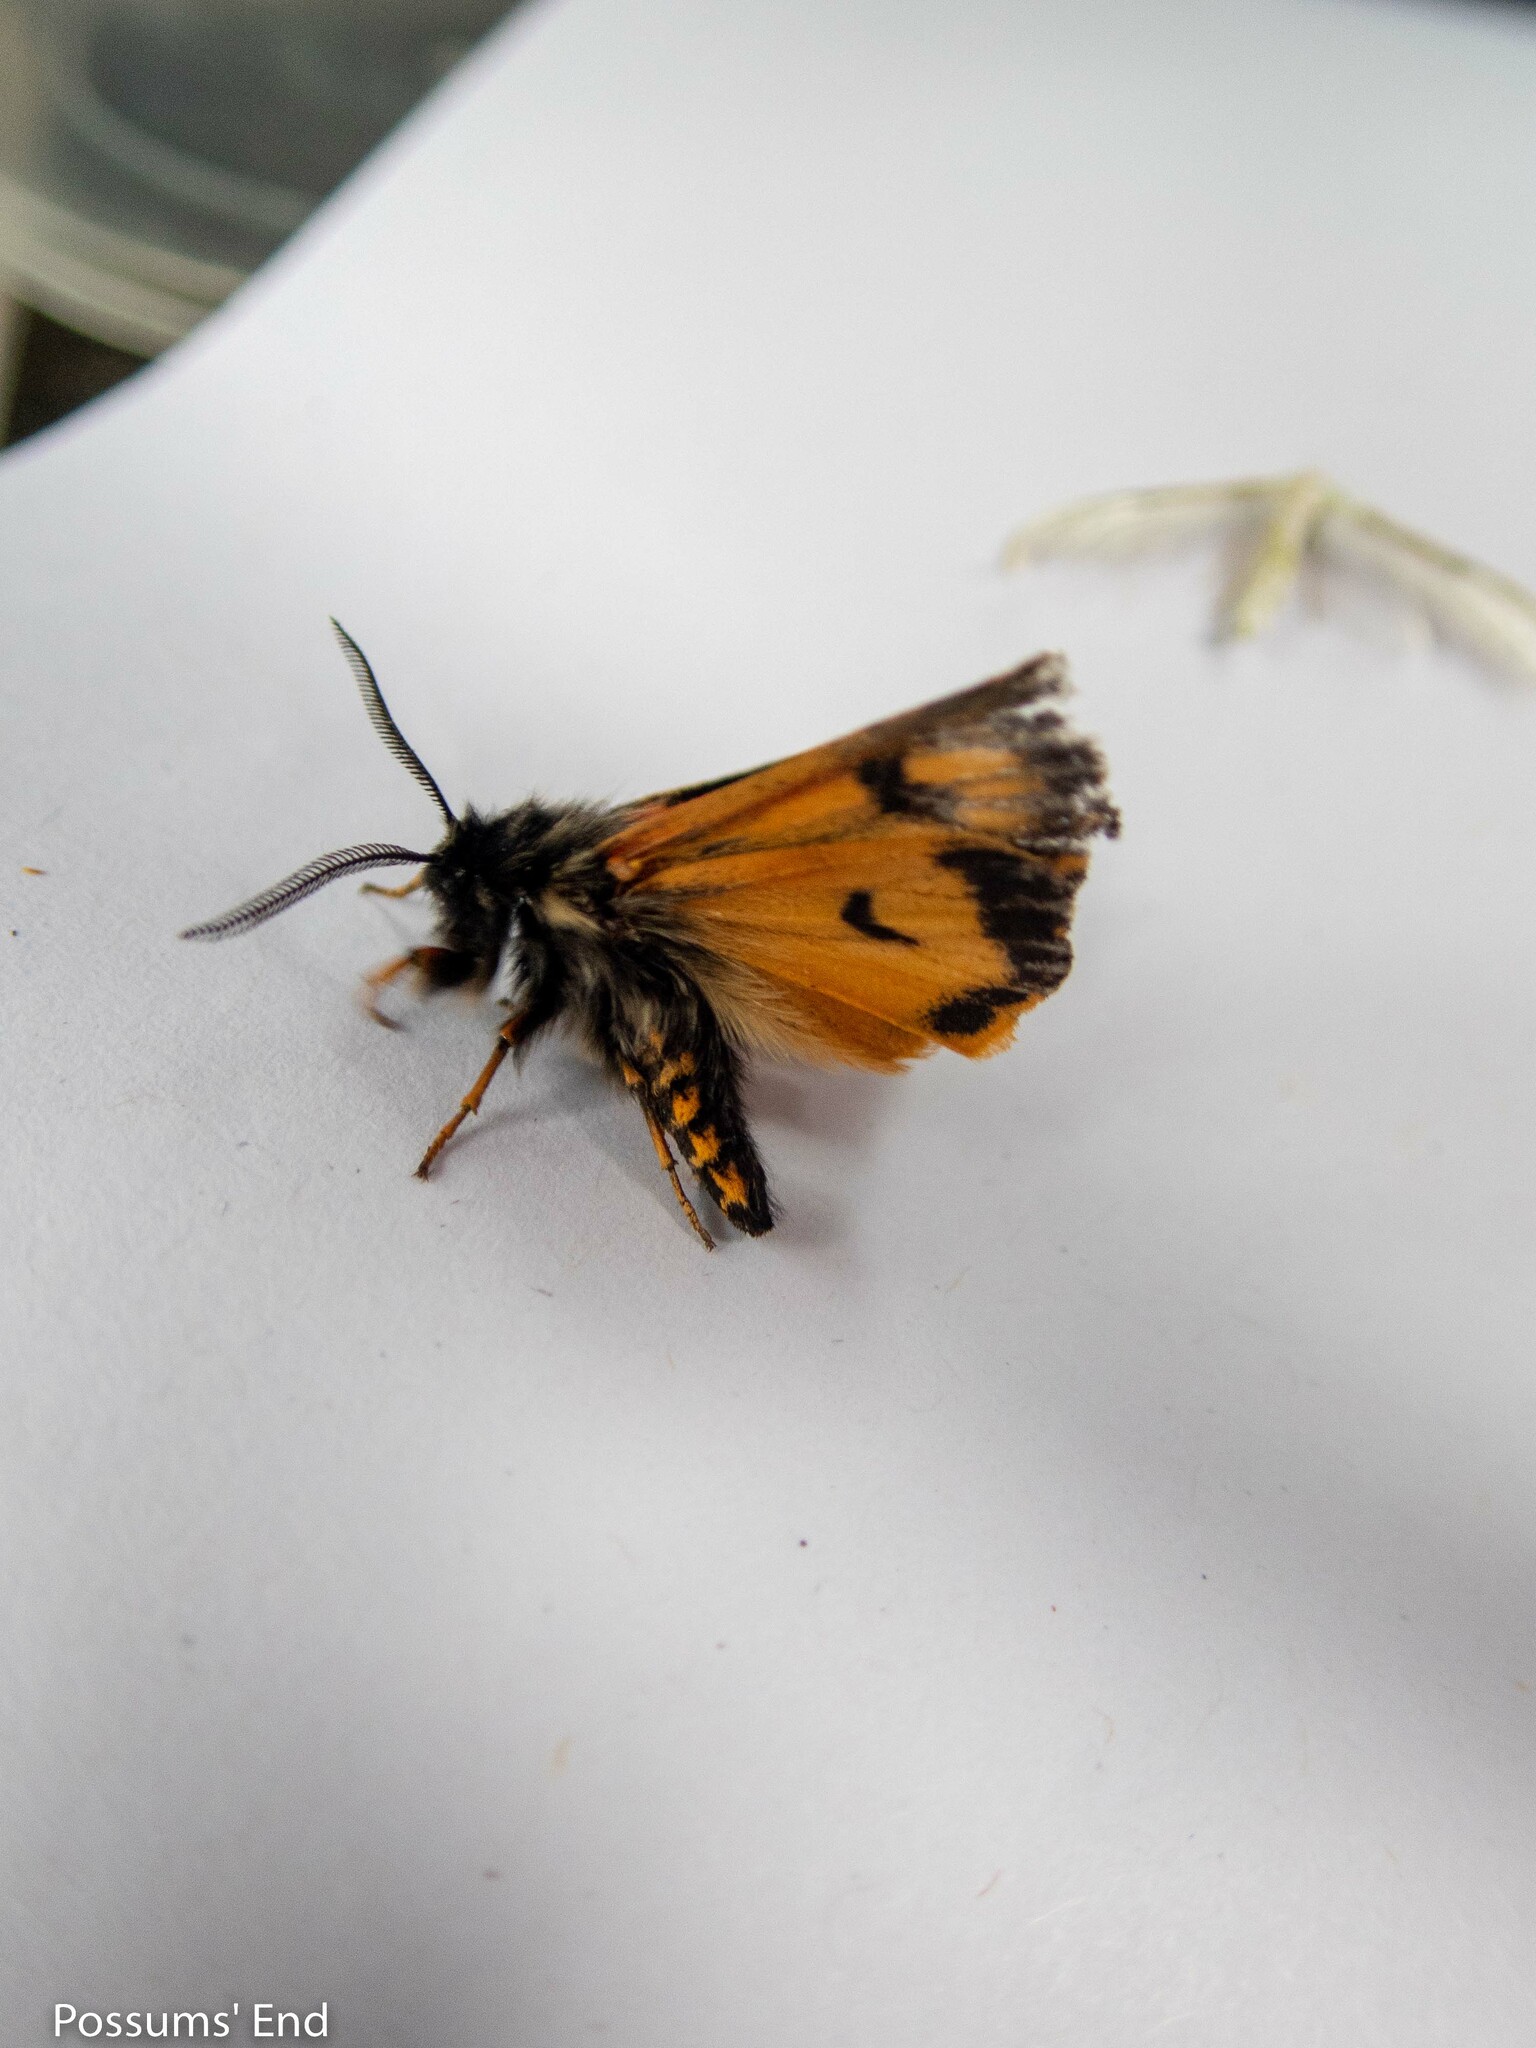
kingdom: Animalia
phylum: Arthropoda
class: Insecta
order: Lepidoptera
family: Erebidae
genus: Metacrias
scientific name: Metacrias erichrysa
